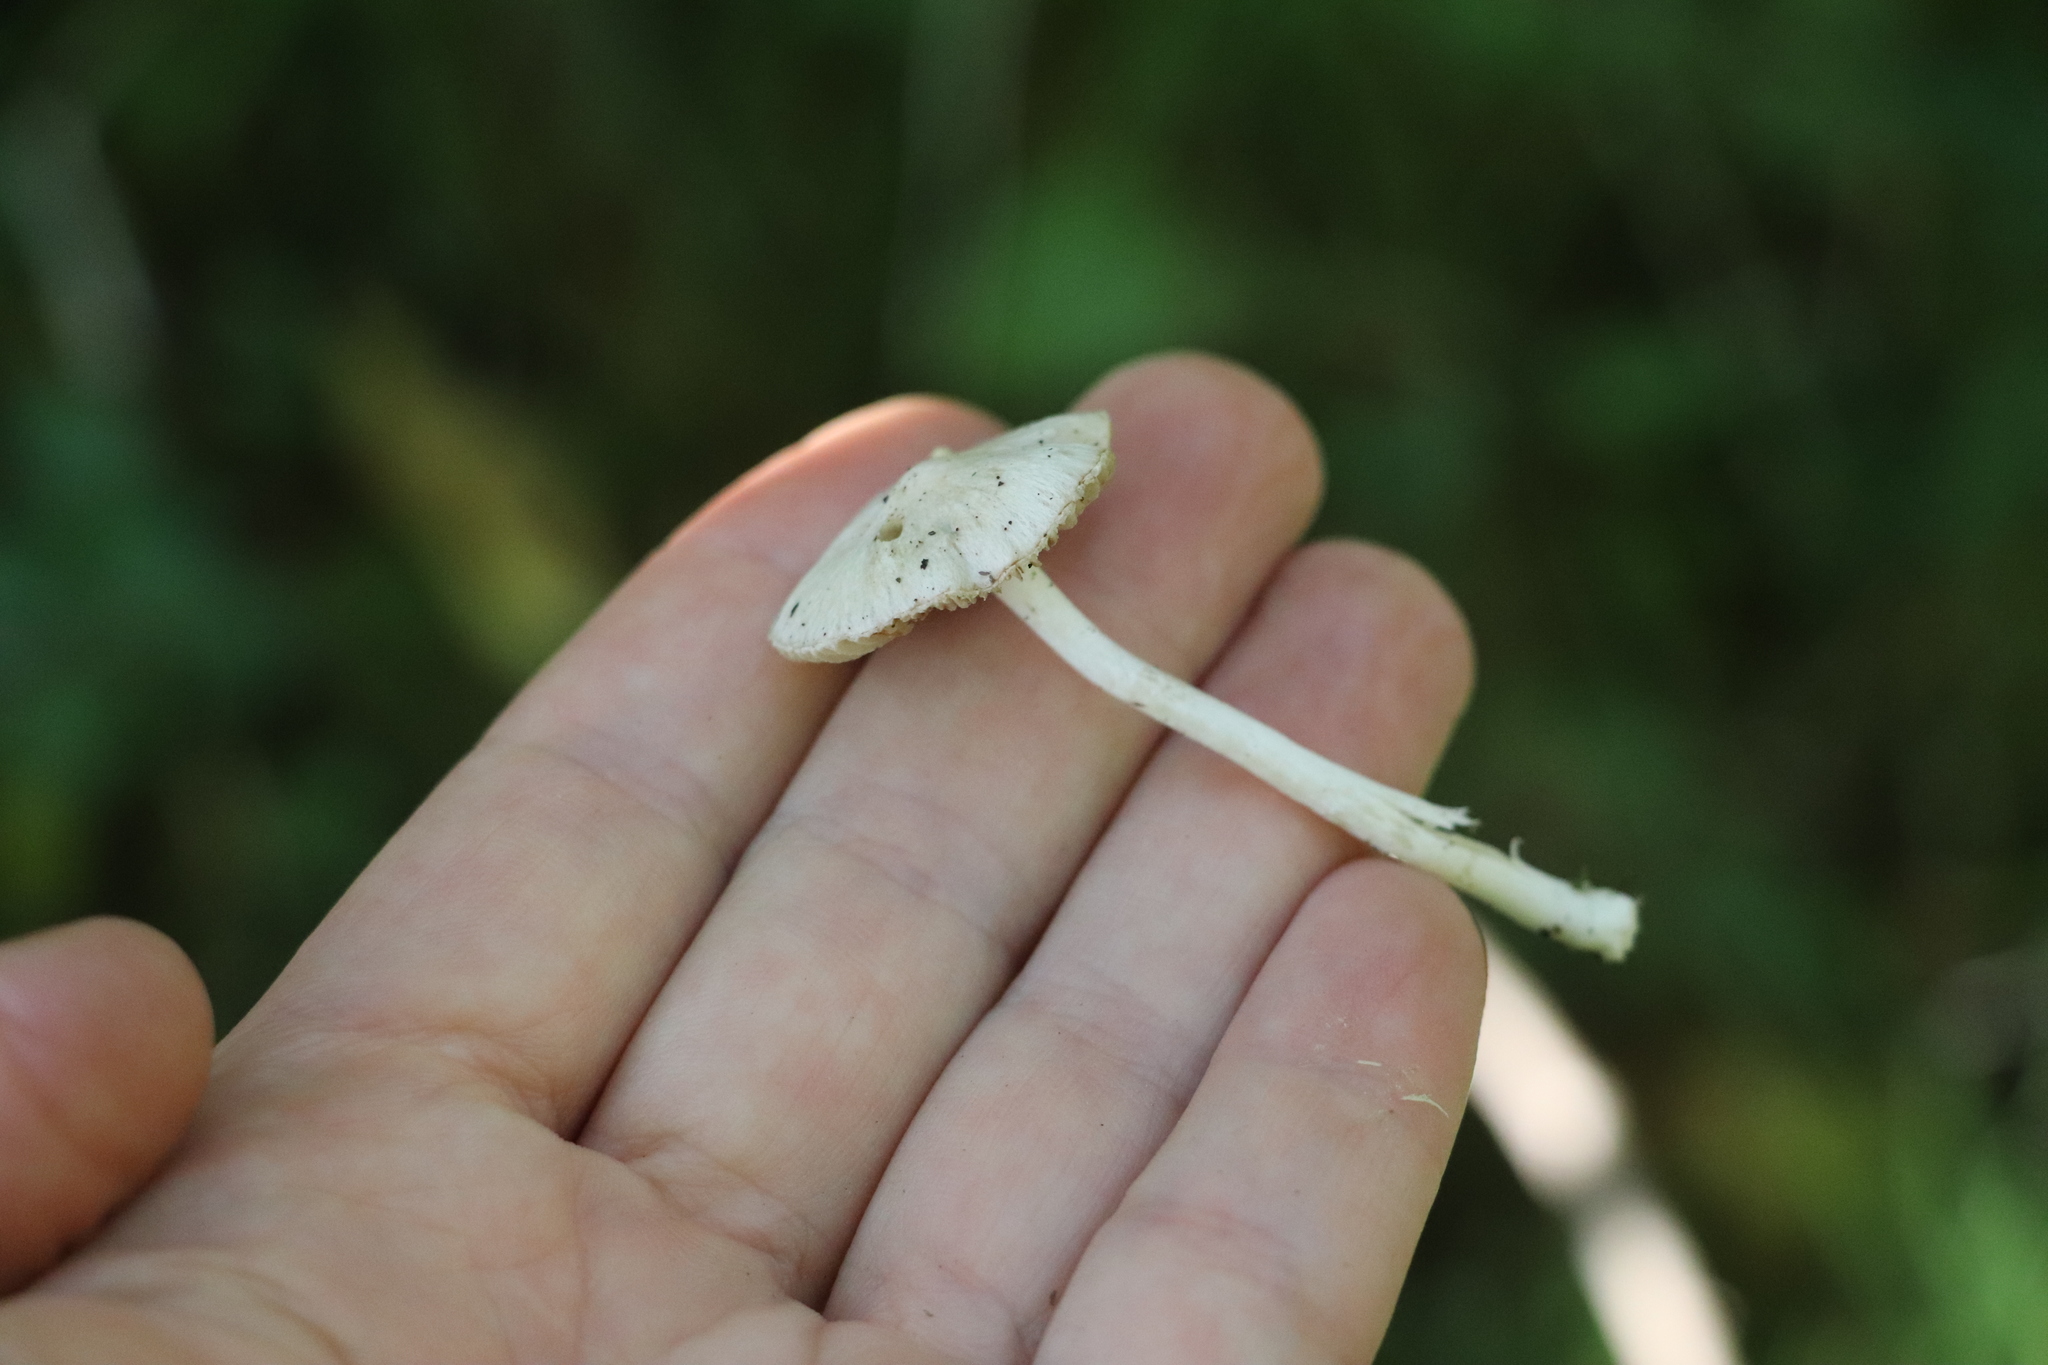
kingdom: Fungi
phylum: Basidiomycota
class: Agaricomycetes
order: Agaricales
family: Inocybaceae
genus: Inocybe
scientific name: Inocybe geophylla
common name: White fibrecap
